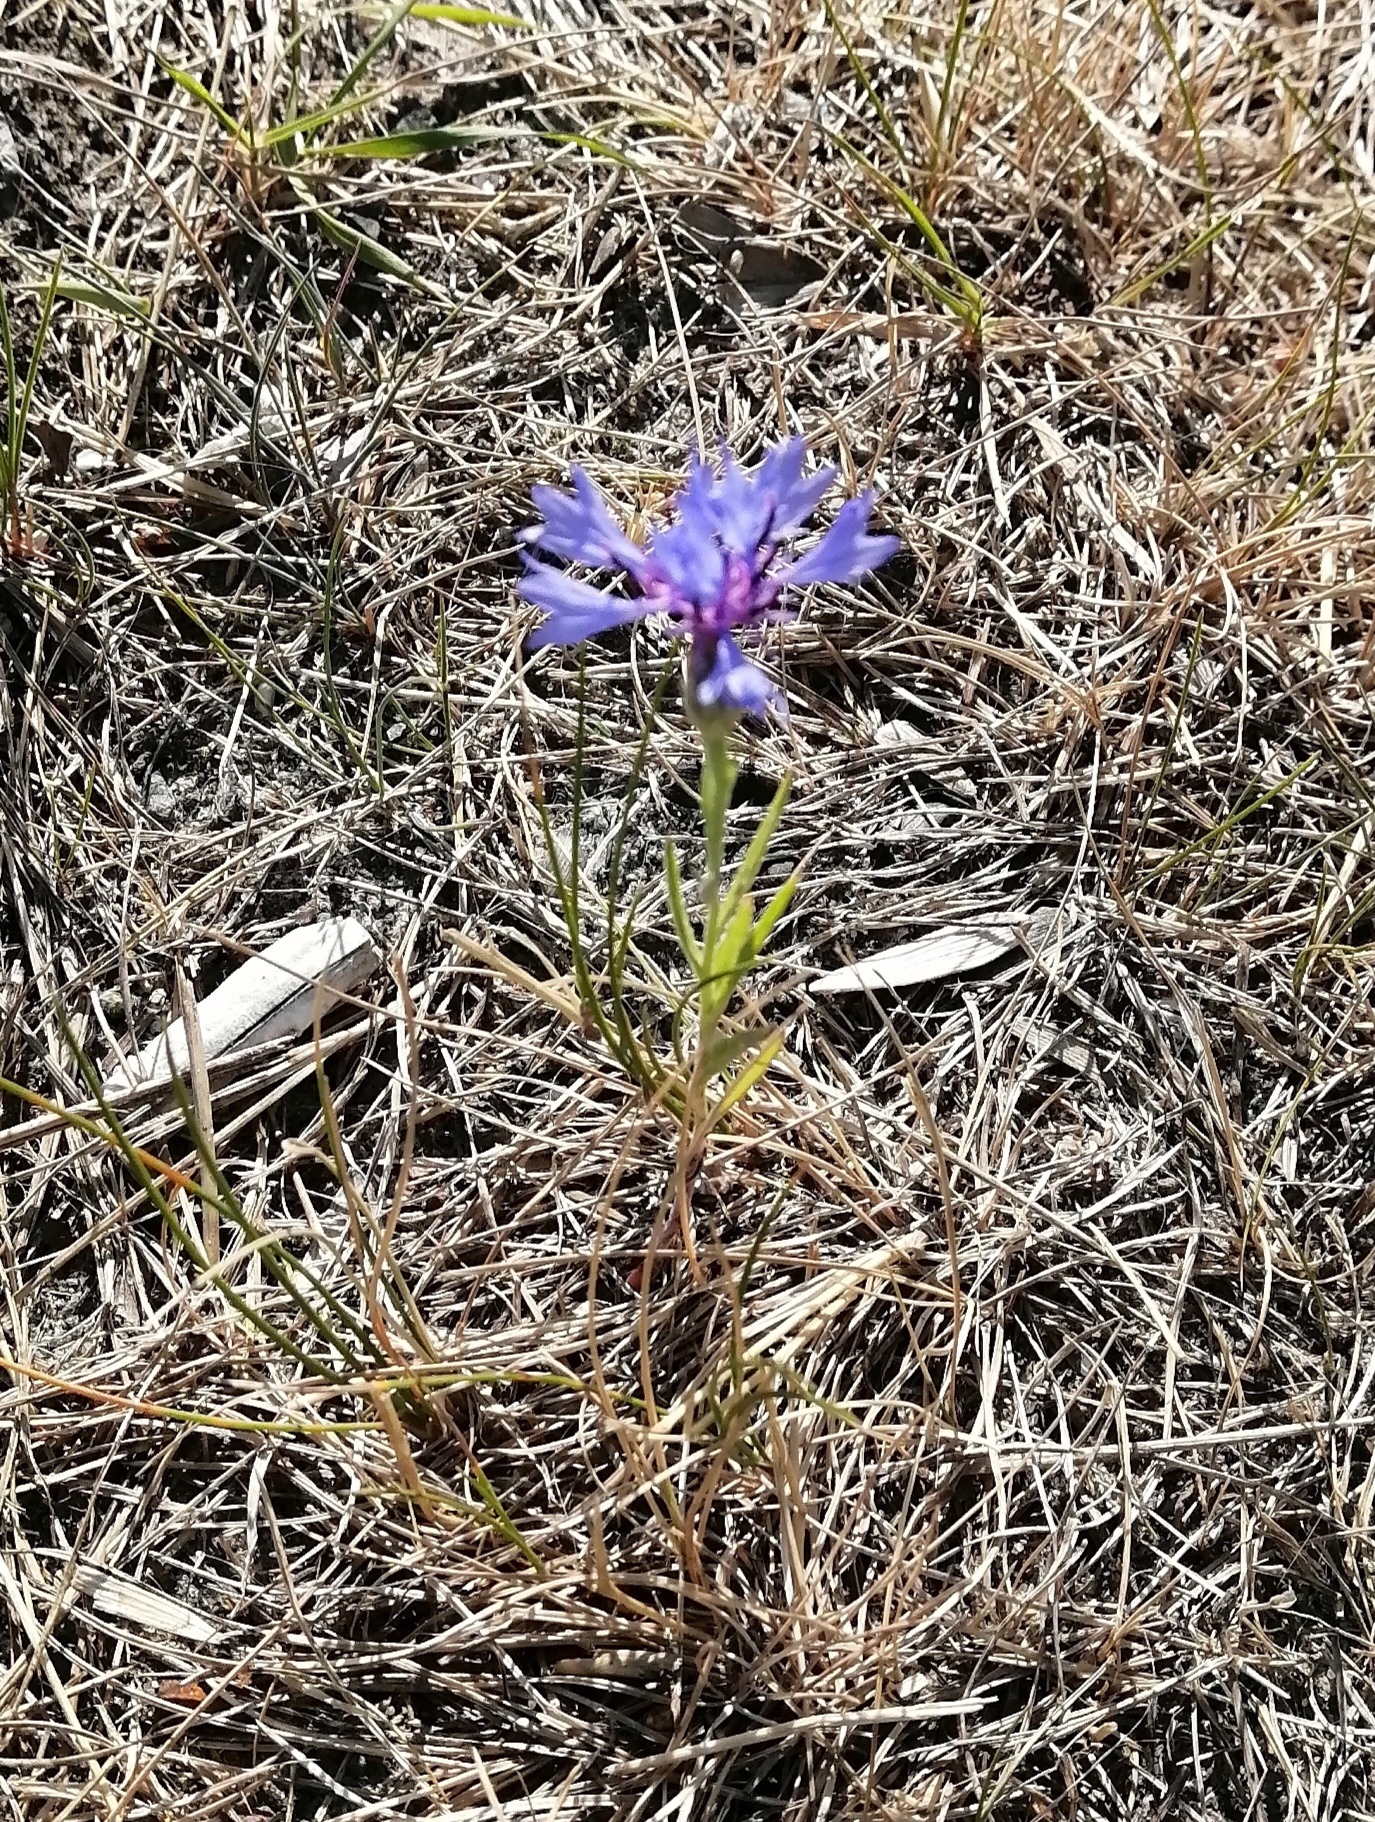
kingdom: Plantae
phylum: Tracheophyta
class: Magnoliopsida
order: Asterales
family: Asteraceae
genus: Centaurea
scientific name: Centaurea cyanus
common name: Cornflower
